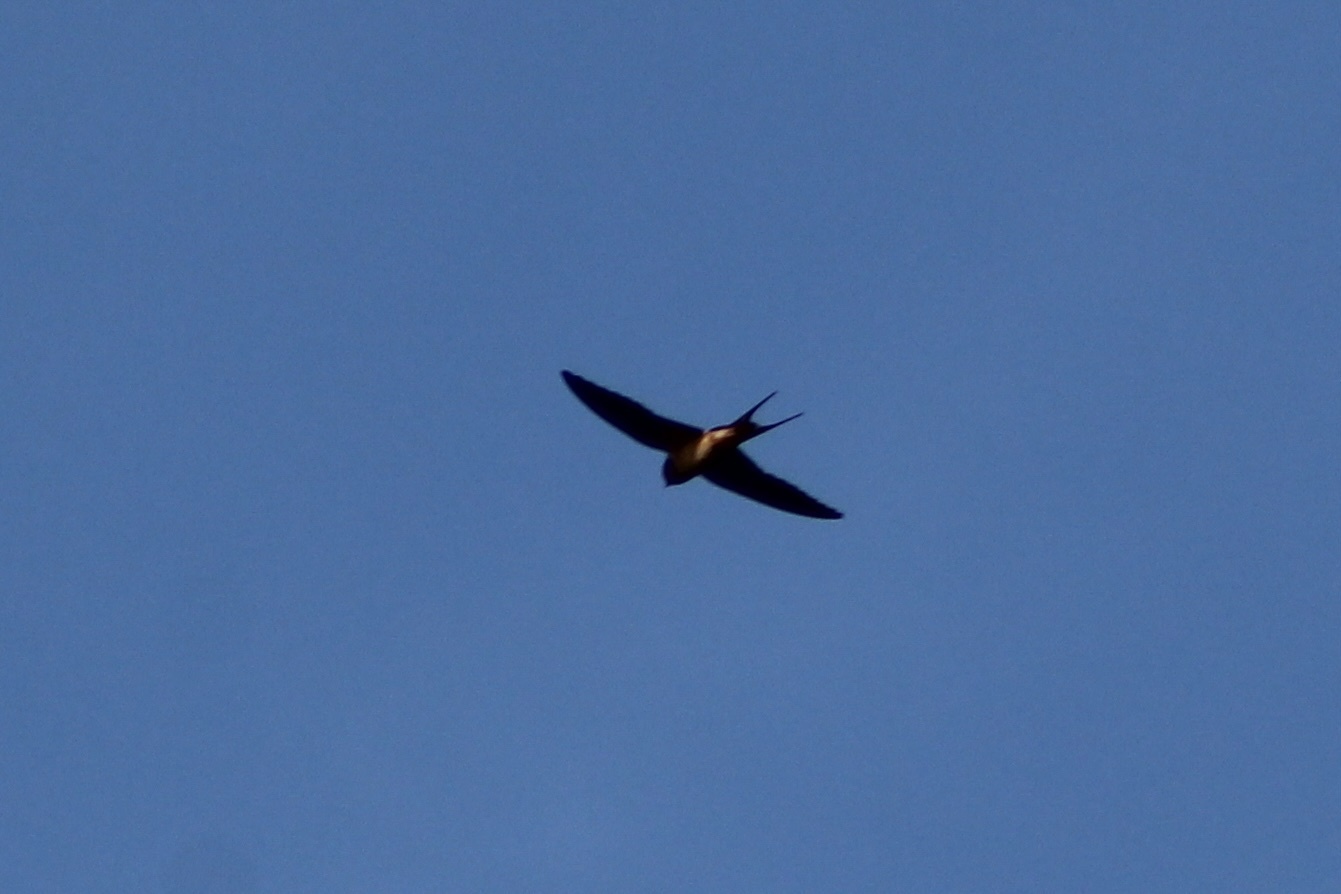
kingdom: Animalia
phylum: Chordata
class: Aves
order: Passeriformes
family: Hirundinidae
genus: Hirundo
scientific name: Hirundo rustica
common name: Barn swallow
